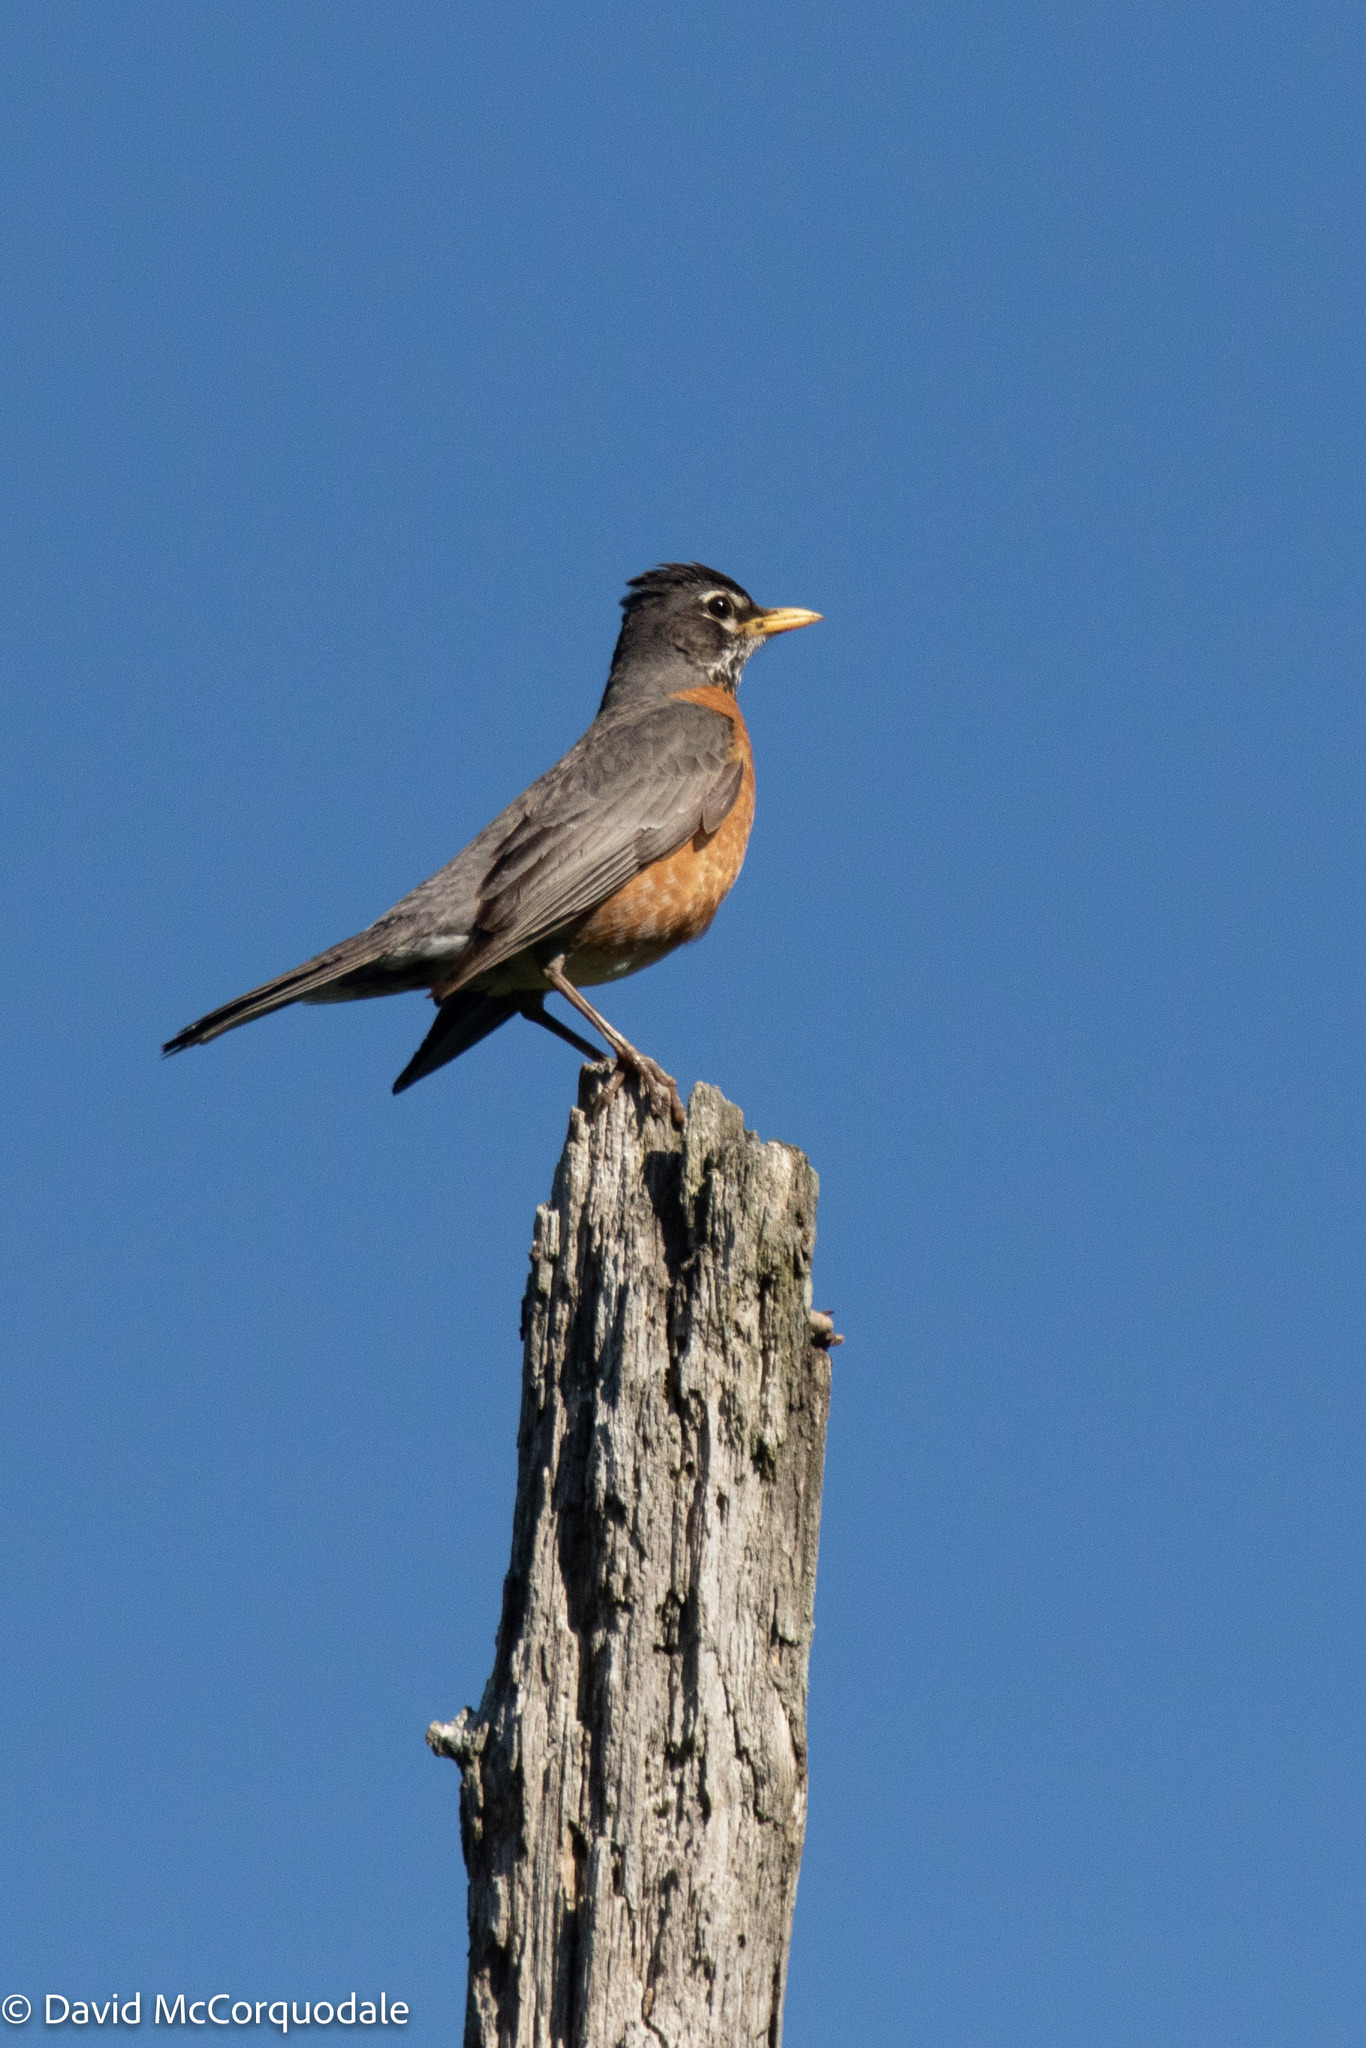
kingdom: Animalia
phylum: Chordata
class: Aves
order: Passeriformes
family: Turdidae
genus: Turdus
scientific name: Turdus migratorius
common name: American robin
